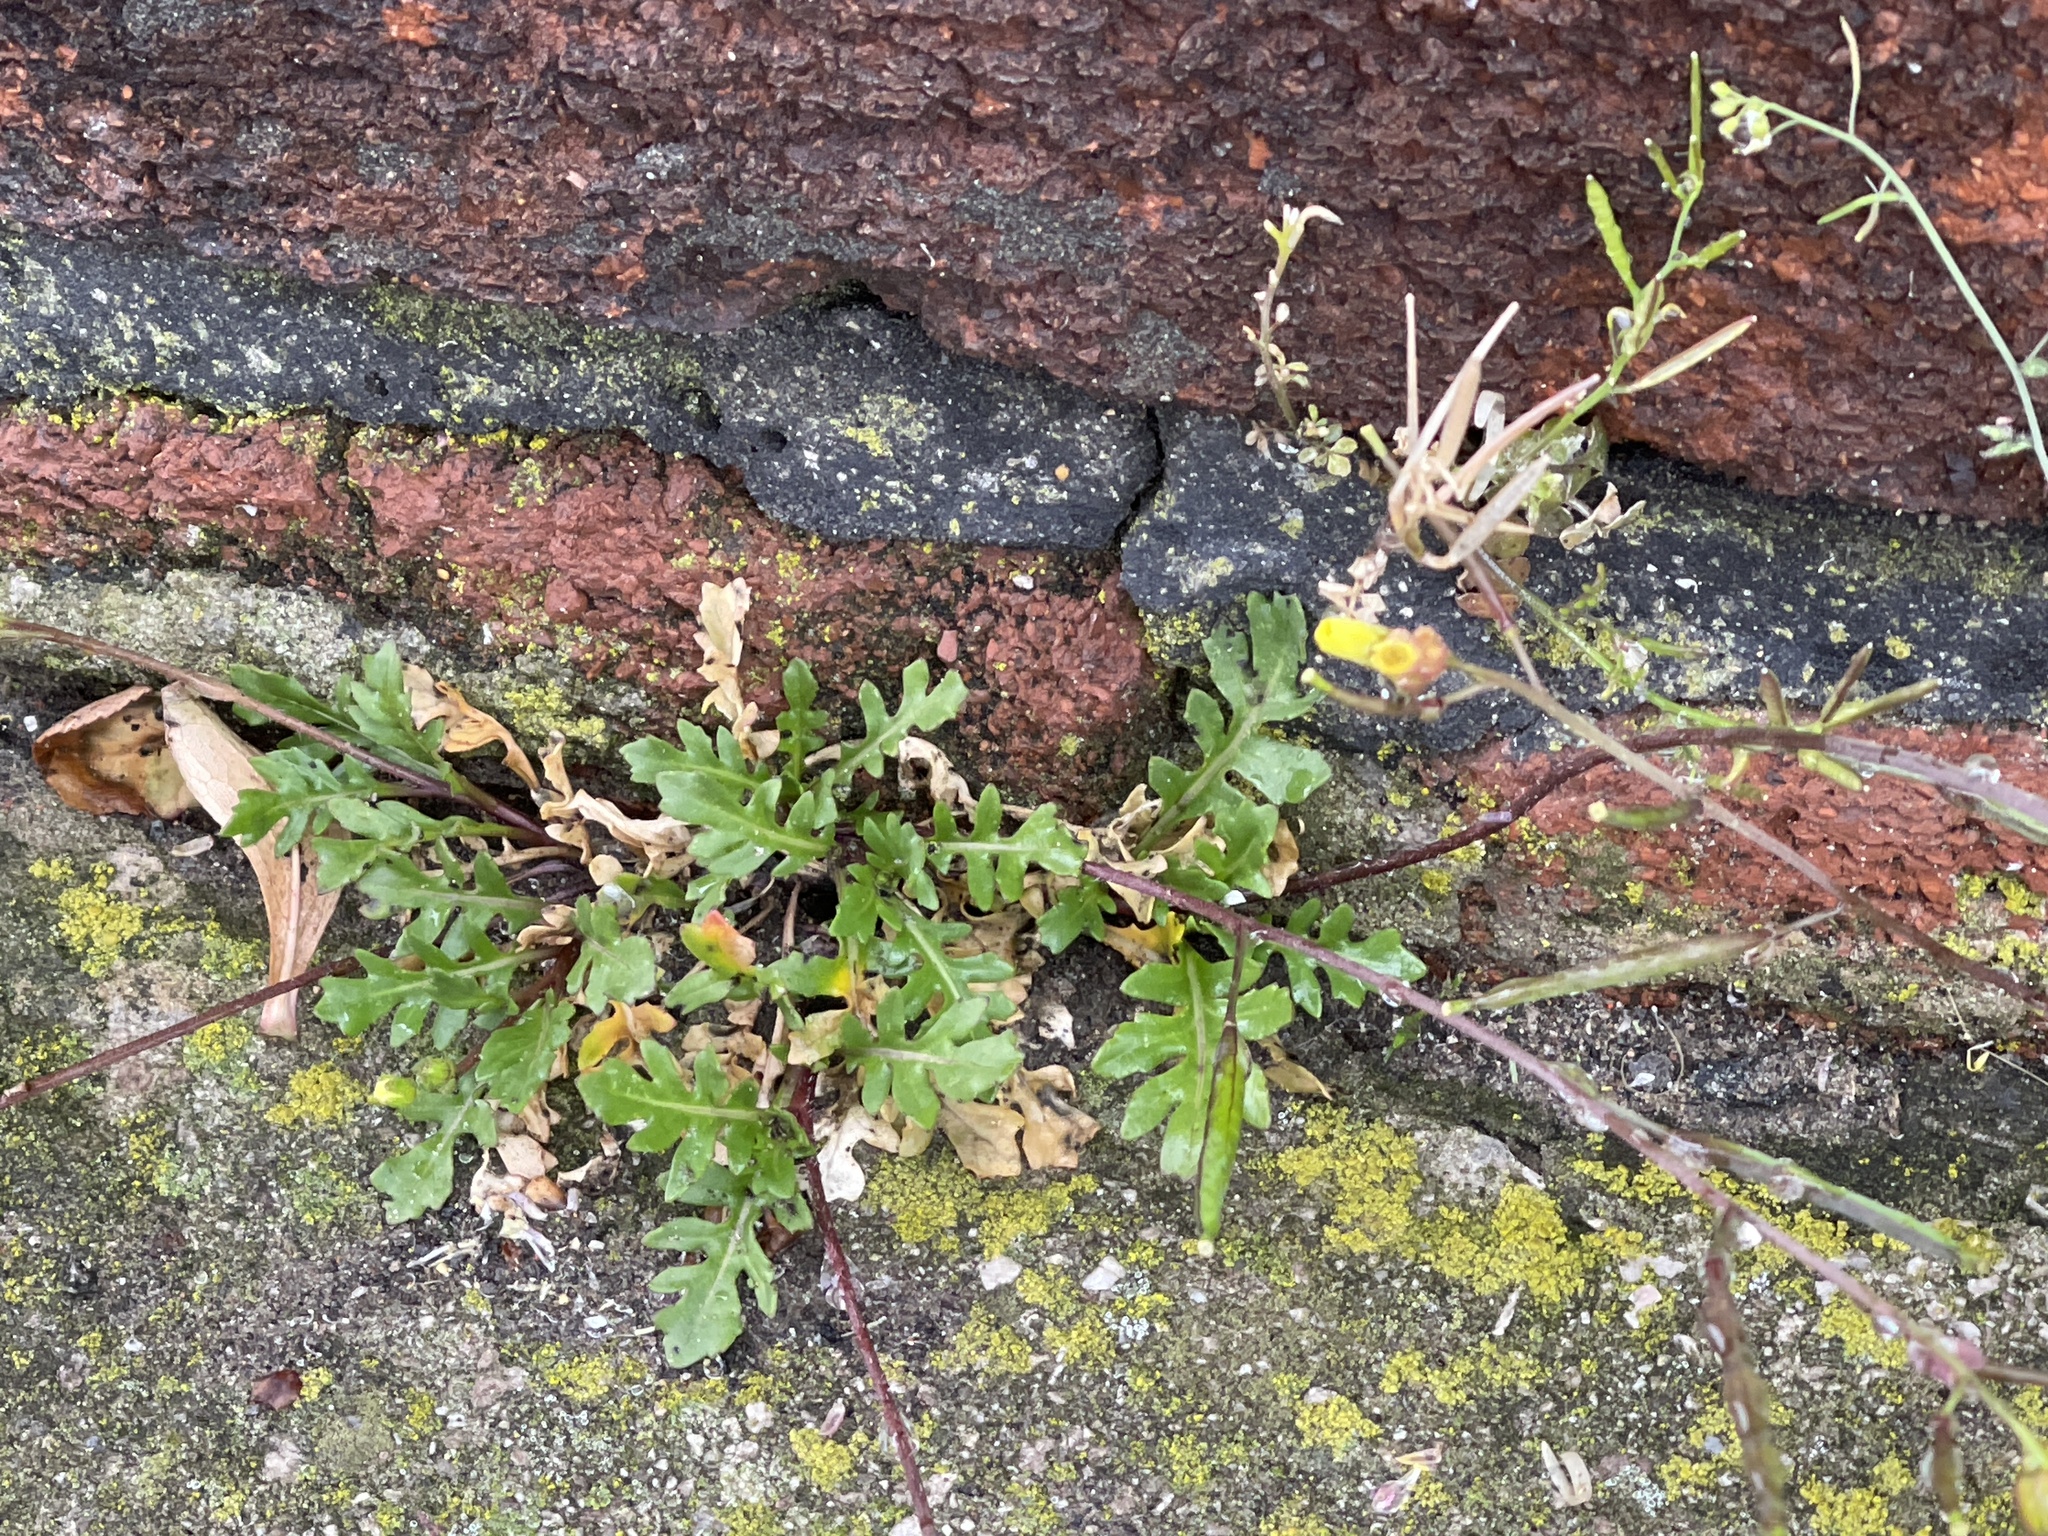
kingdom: Plantae
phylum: Tracheophyta
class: Magnoliopsida
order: Brassicales
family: Brassicaceae
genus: Diplotaxis
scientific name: Diplotaxis muralis
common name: Annual wall-rocket
